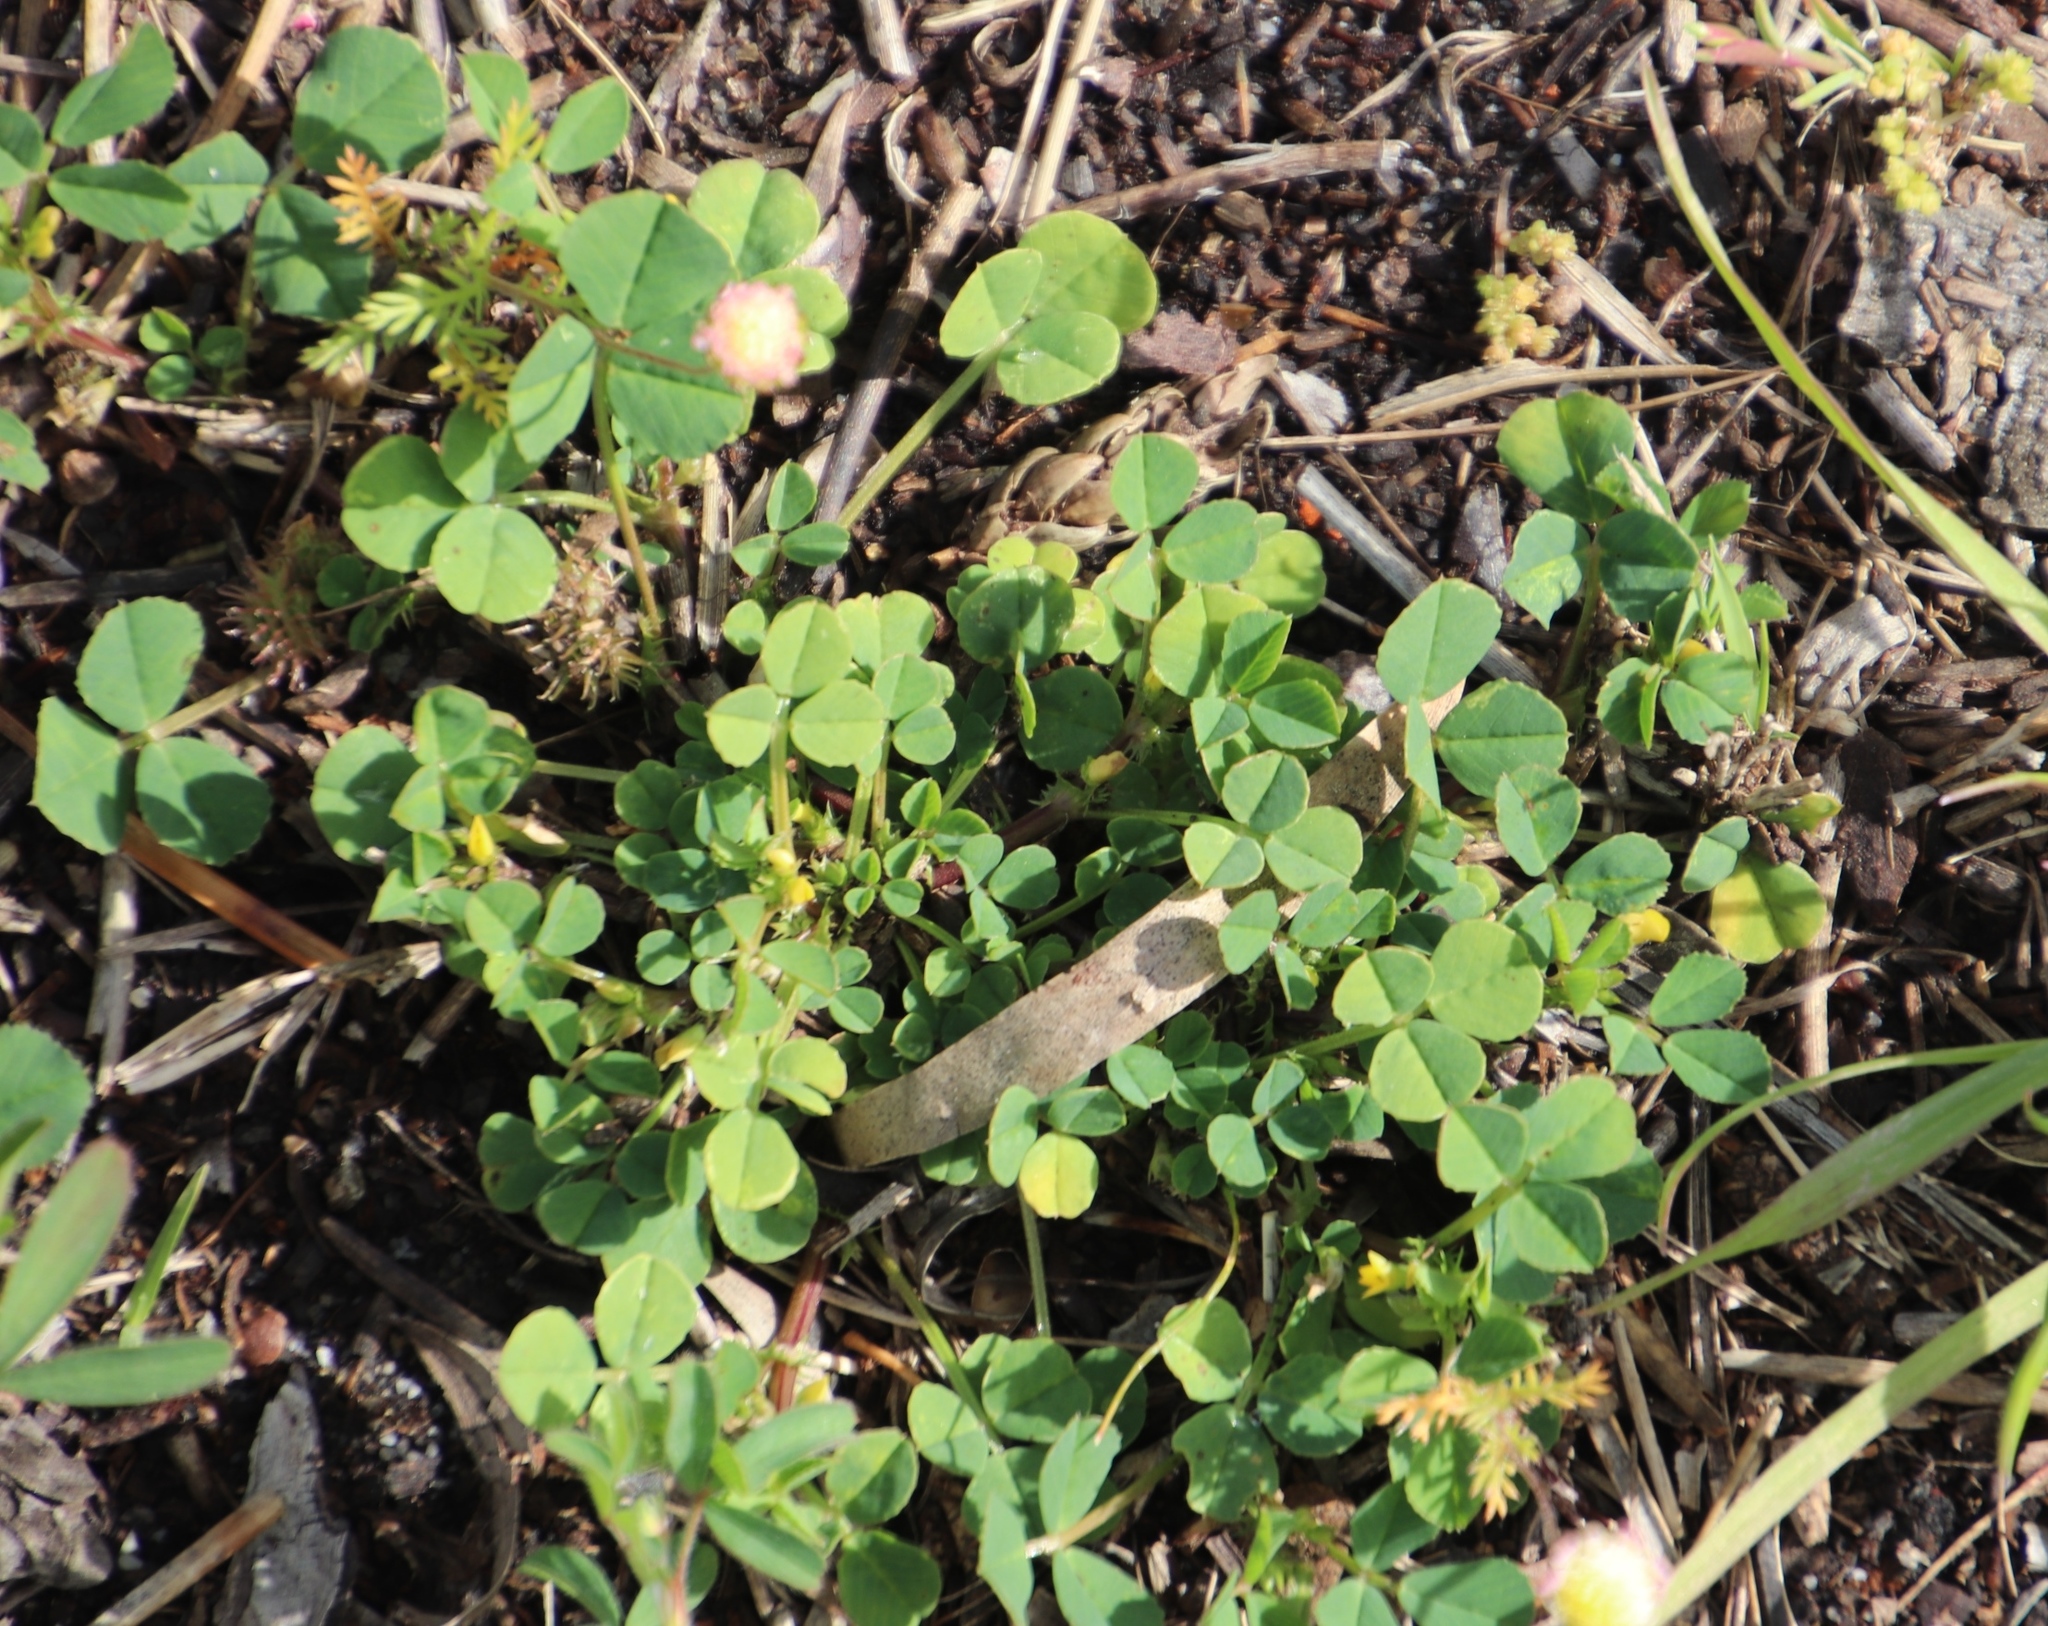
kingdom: Plantae
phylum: Tracheophyta
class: Magnoliopsida
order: Fabales
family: Fabaceae
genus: Medicago
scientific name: Medicago polymorpha
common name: Burclover
